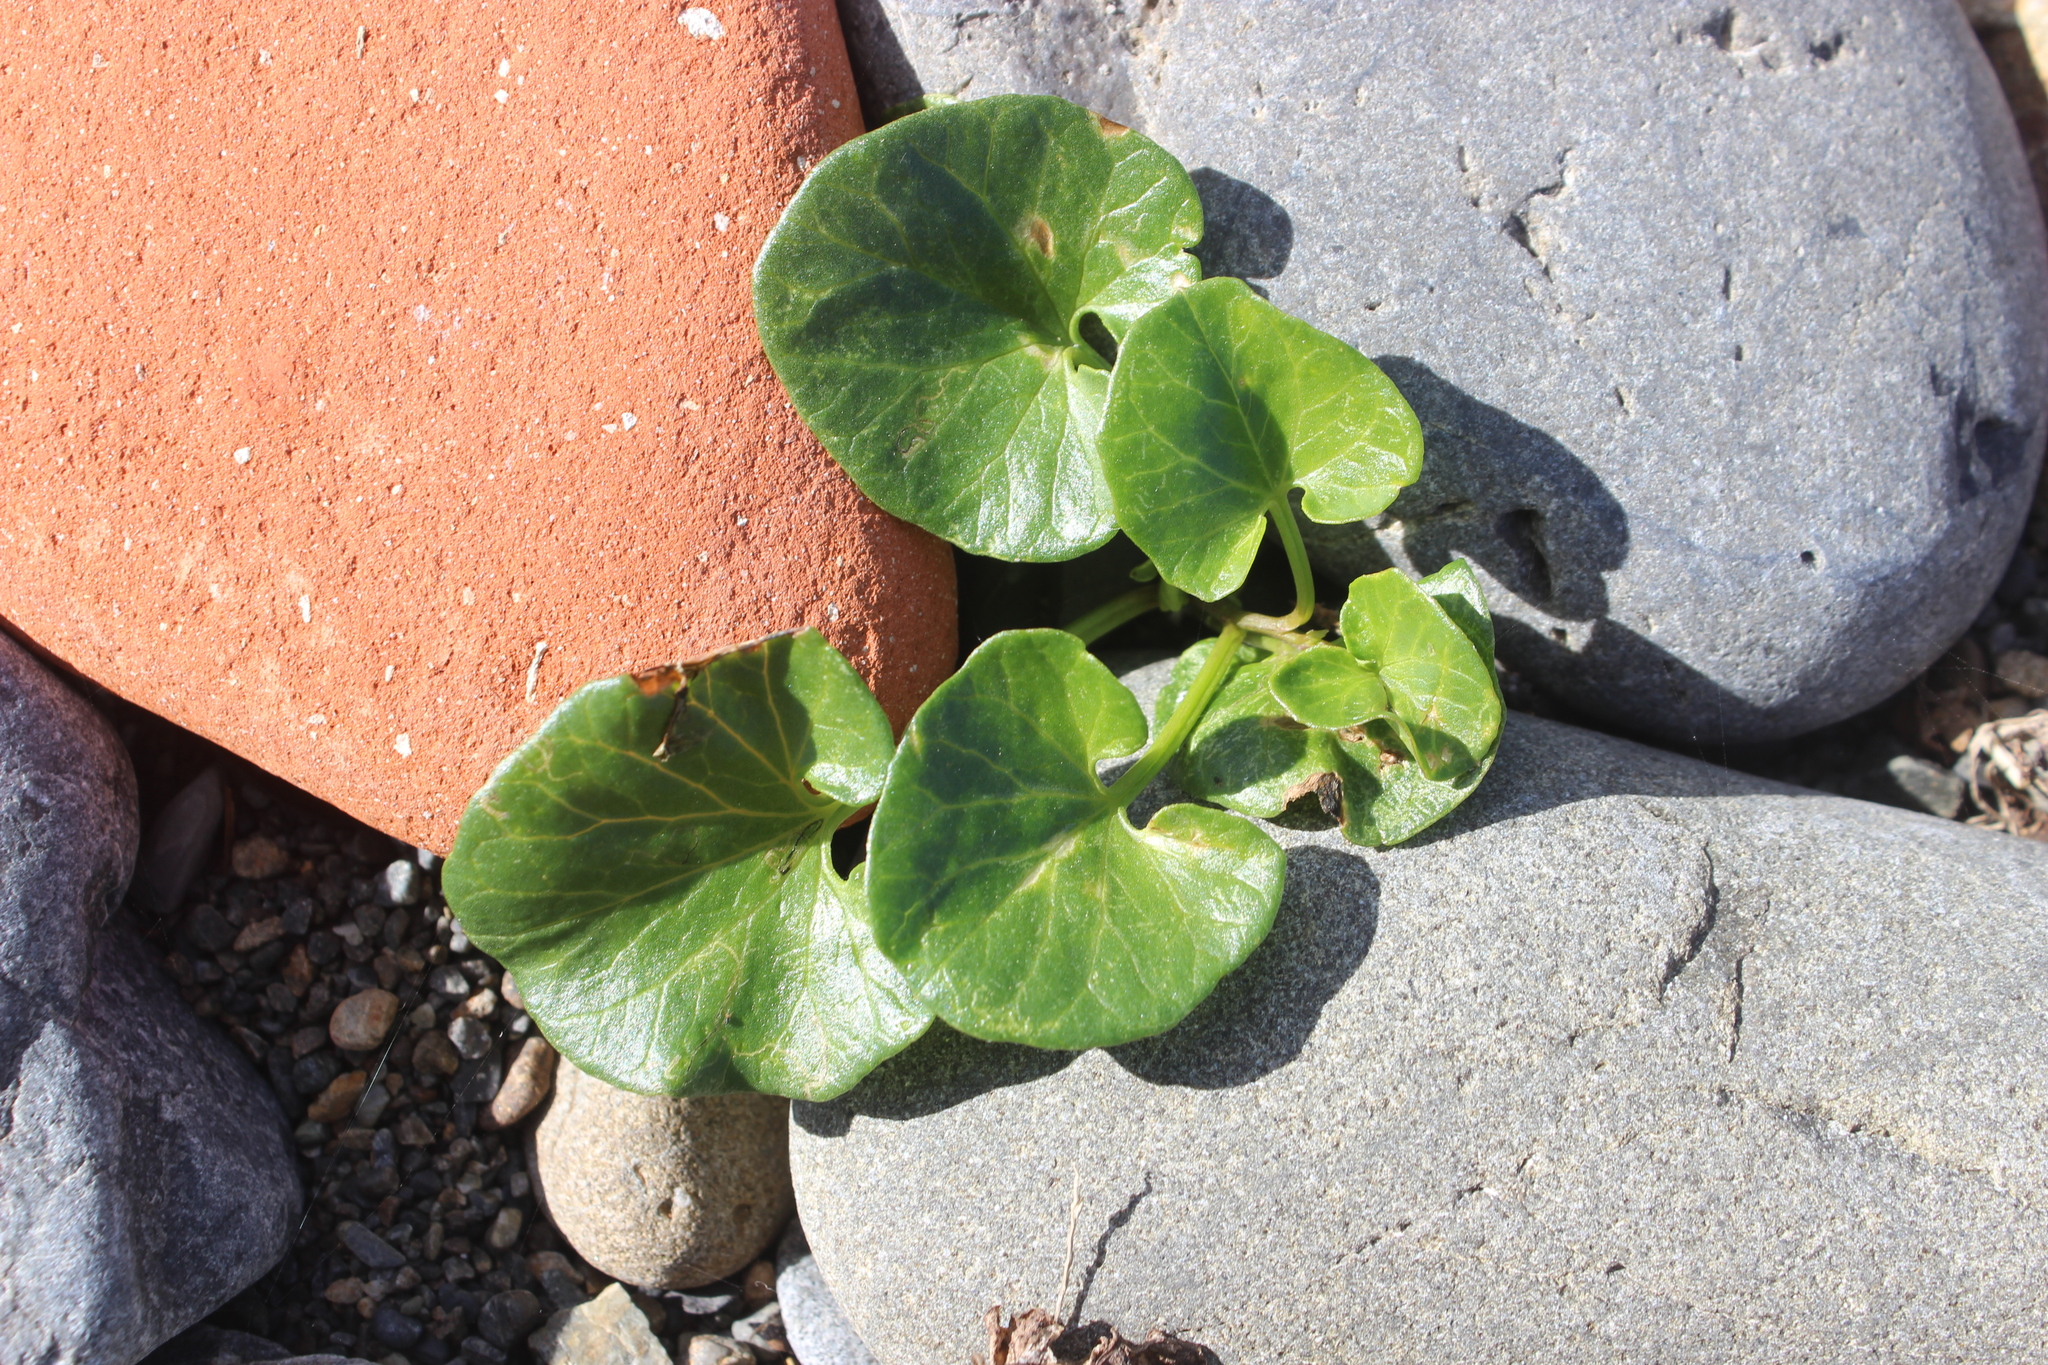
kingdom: Plantae
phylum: Tracheophyta
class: Magnoliopsida
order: Solanales
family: Convolvulaceae
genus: Calystegia
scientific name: Calystegia soldanella
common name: Sea bindweed
